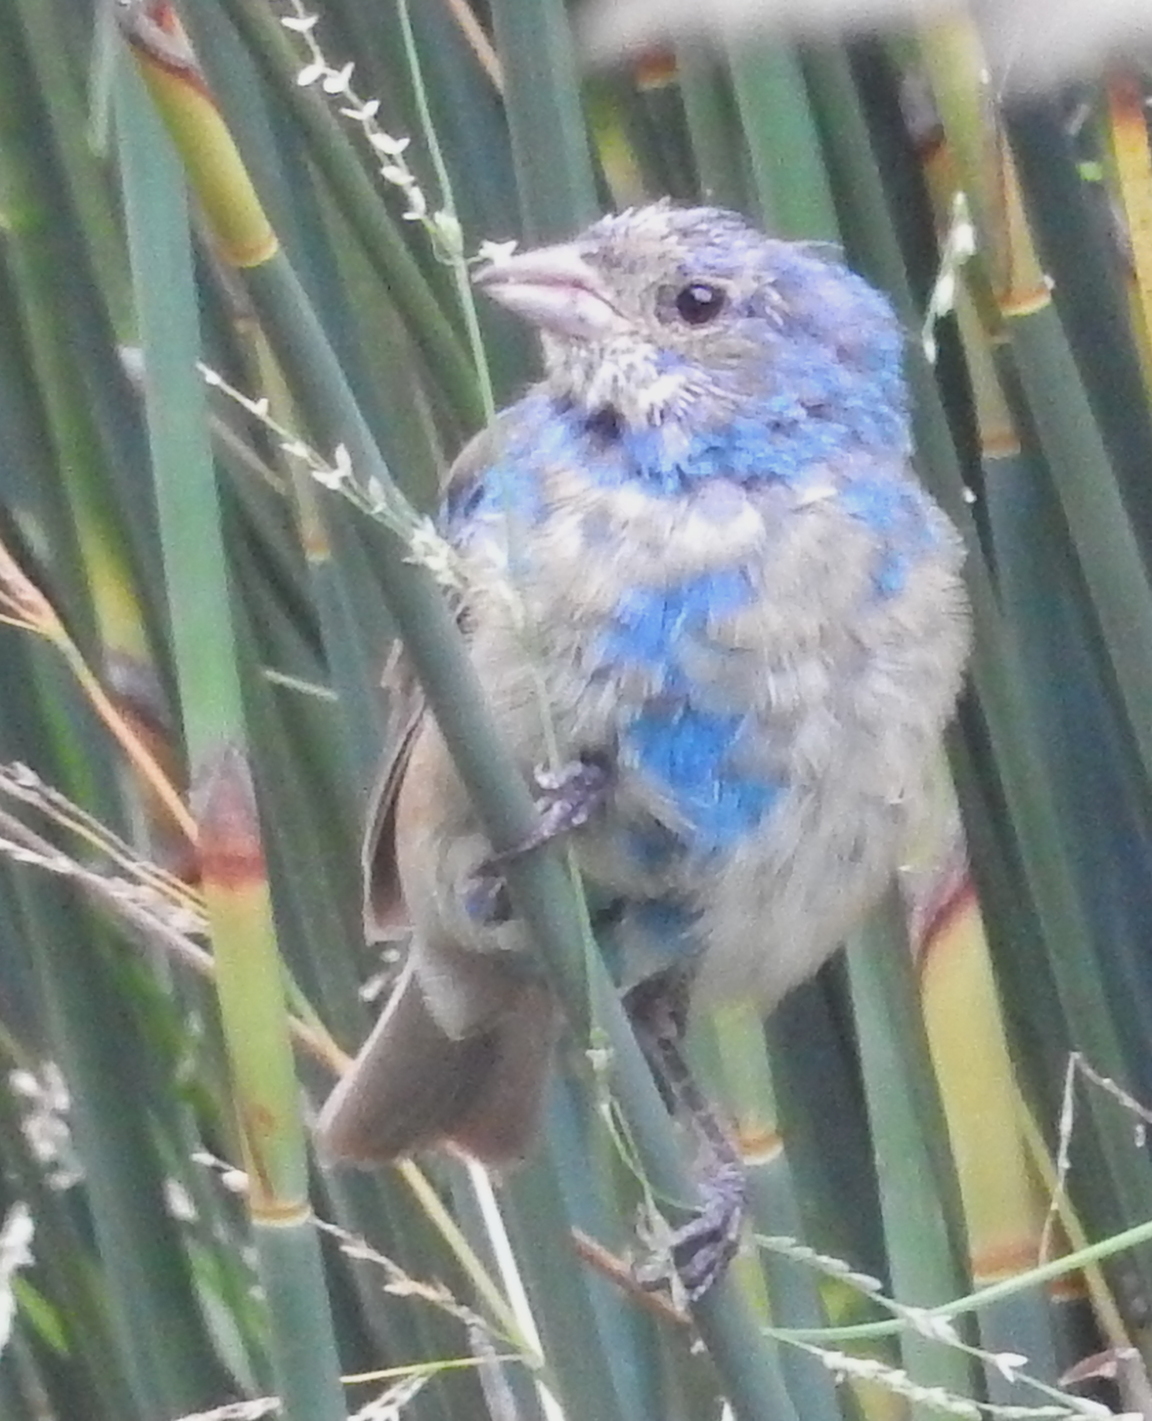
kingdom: Animalia
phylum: Chordata
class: Aves
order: Passeriformes
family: Cardinalidae
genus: Passerina
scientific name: Passerina cyanea
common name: Indigo bunting
